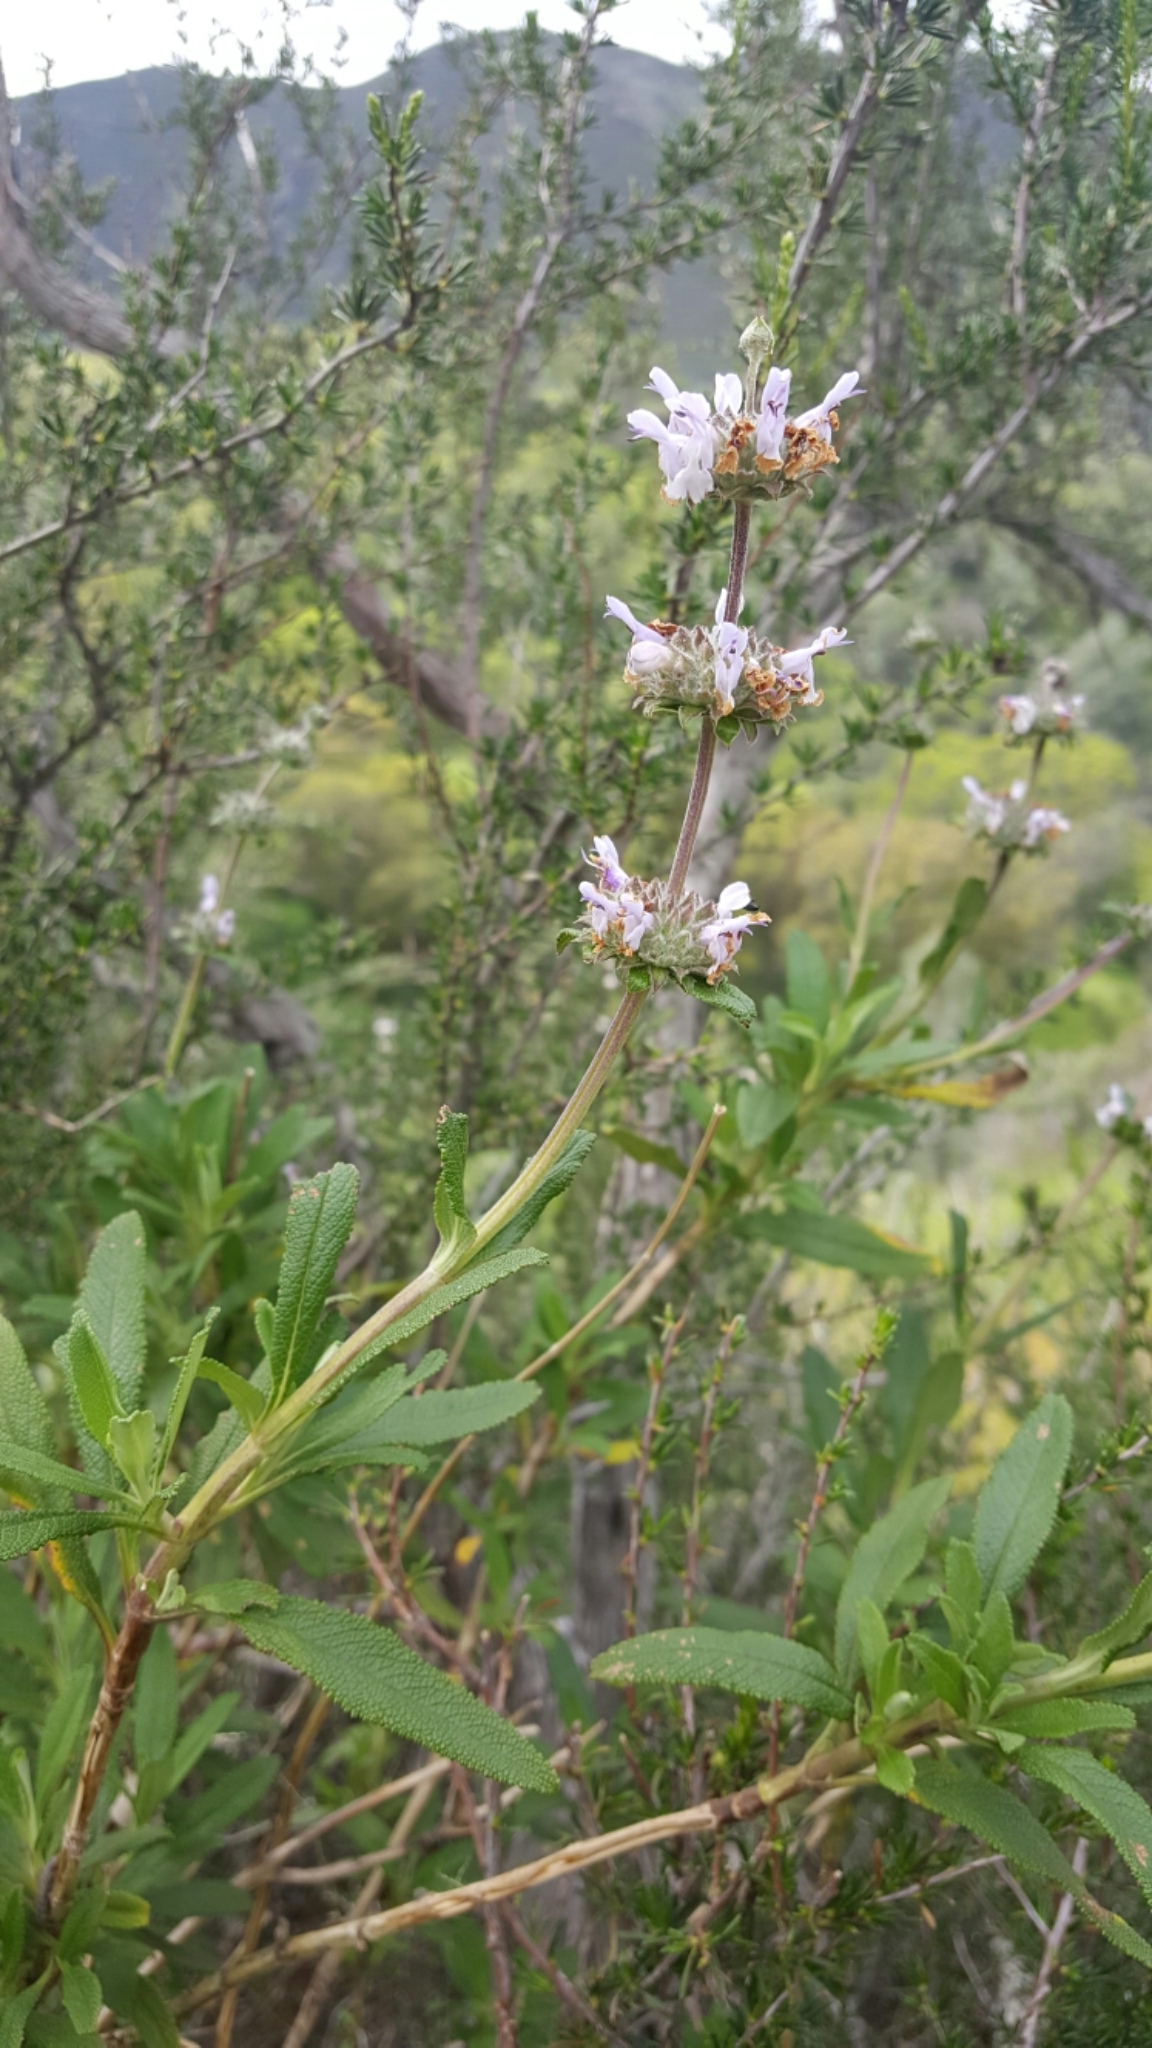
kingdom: Plantae
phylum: Tracheophyta
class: Magnoliopsida
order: Lamiales
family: Lamiaceae
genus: Salvia
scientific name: Salvia mellifera
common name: Black sage
